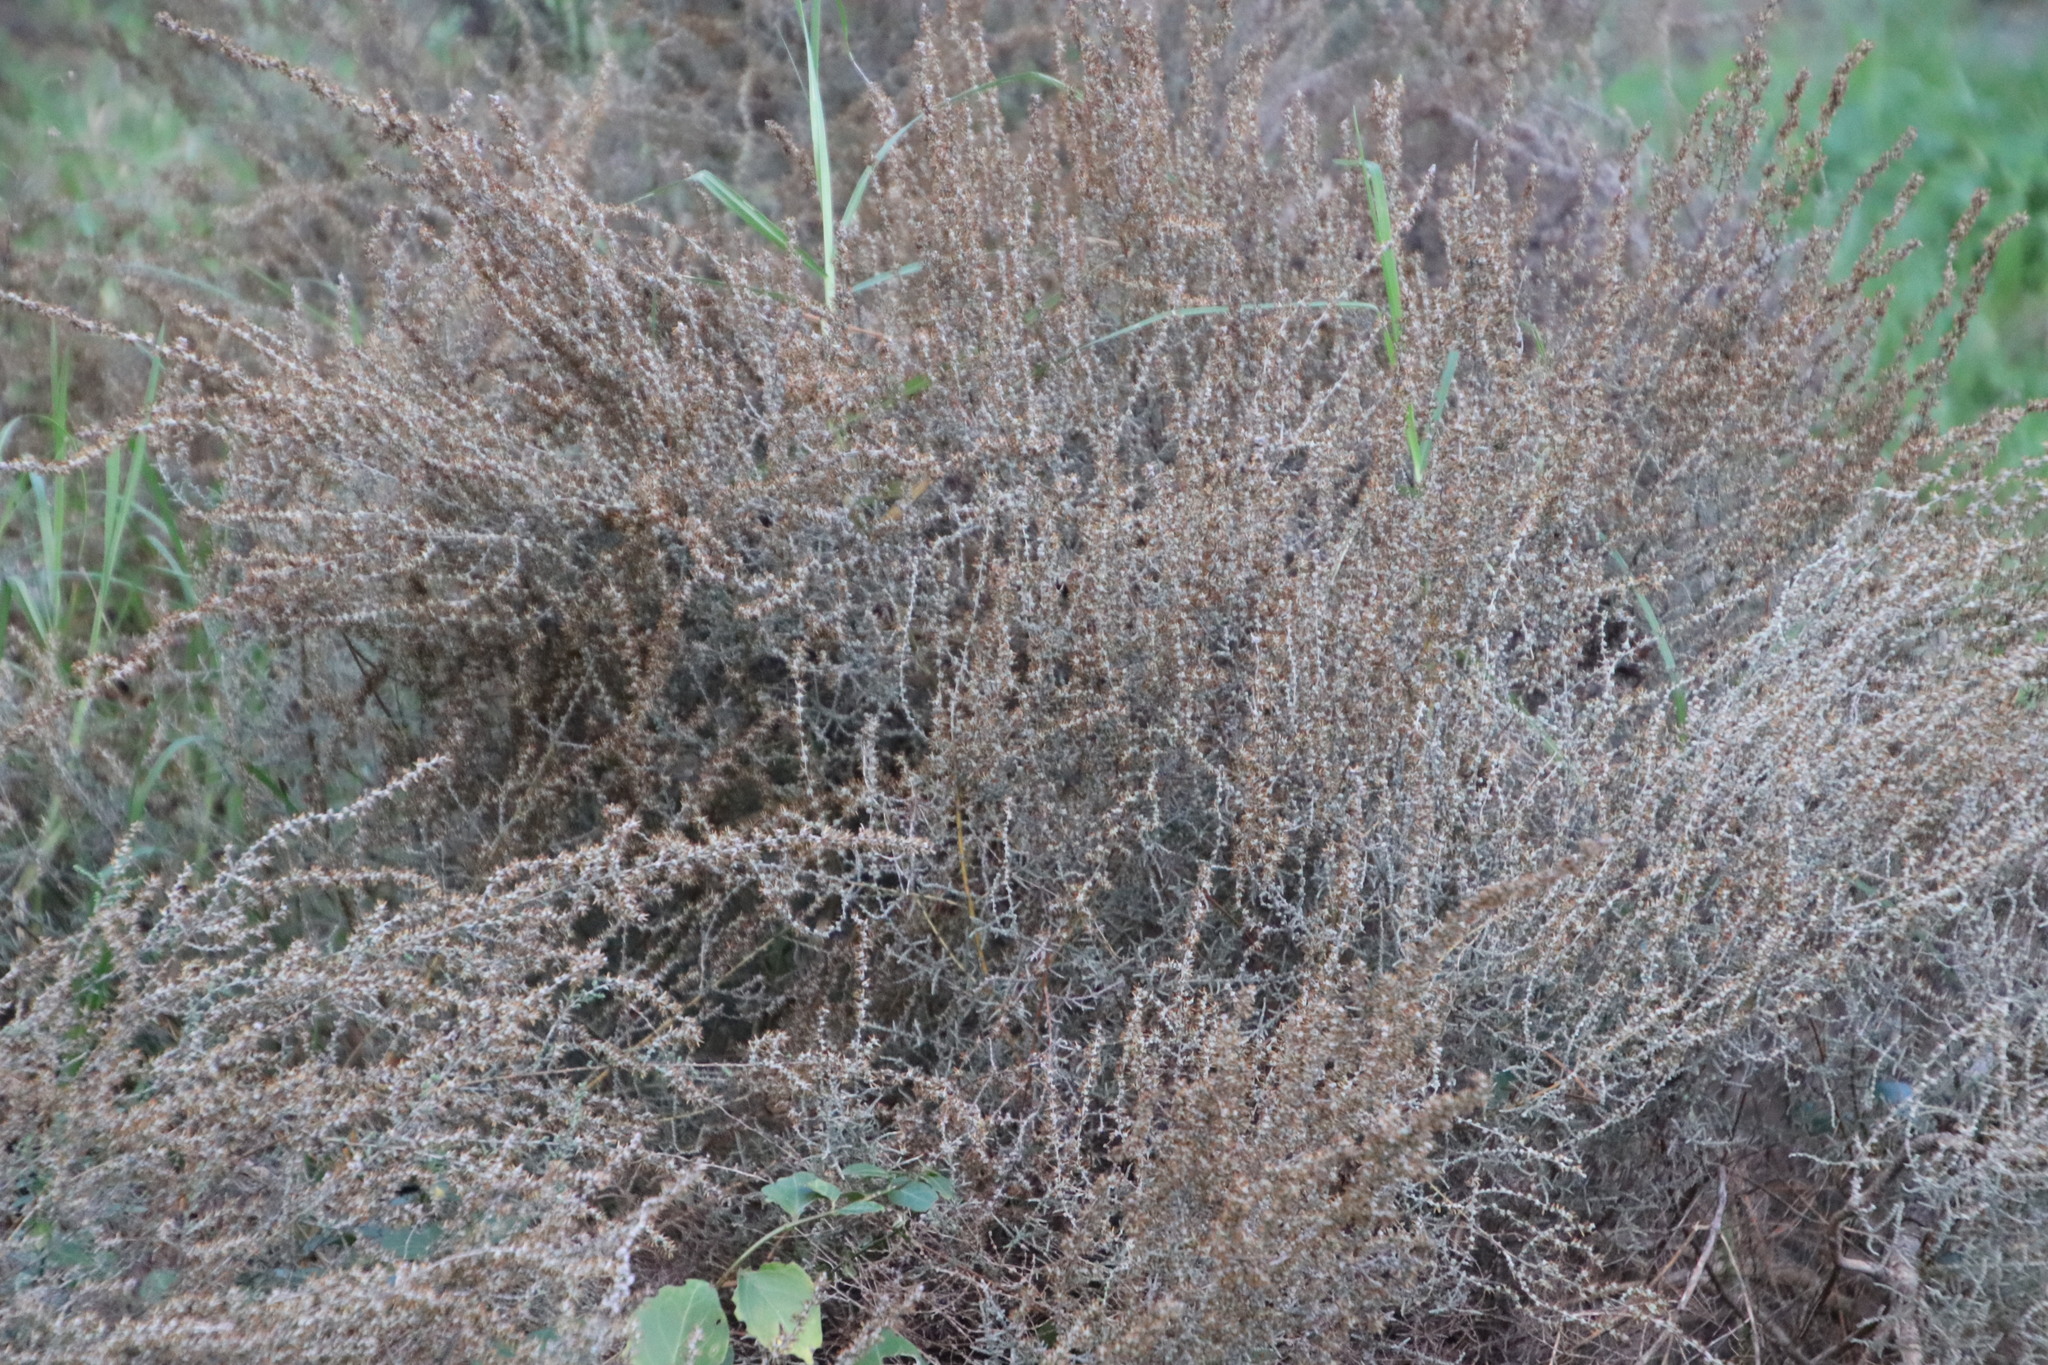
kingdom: Plantae
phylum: Tracheophyta
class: Magnoliopsida
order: Asterales
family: Asteraceae
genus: Seriphium
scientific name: Seriphium plumosum
